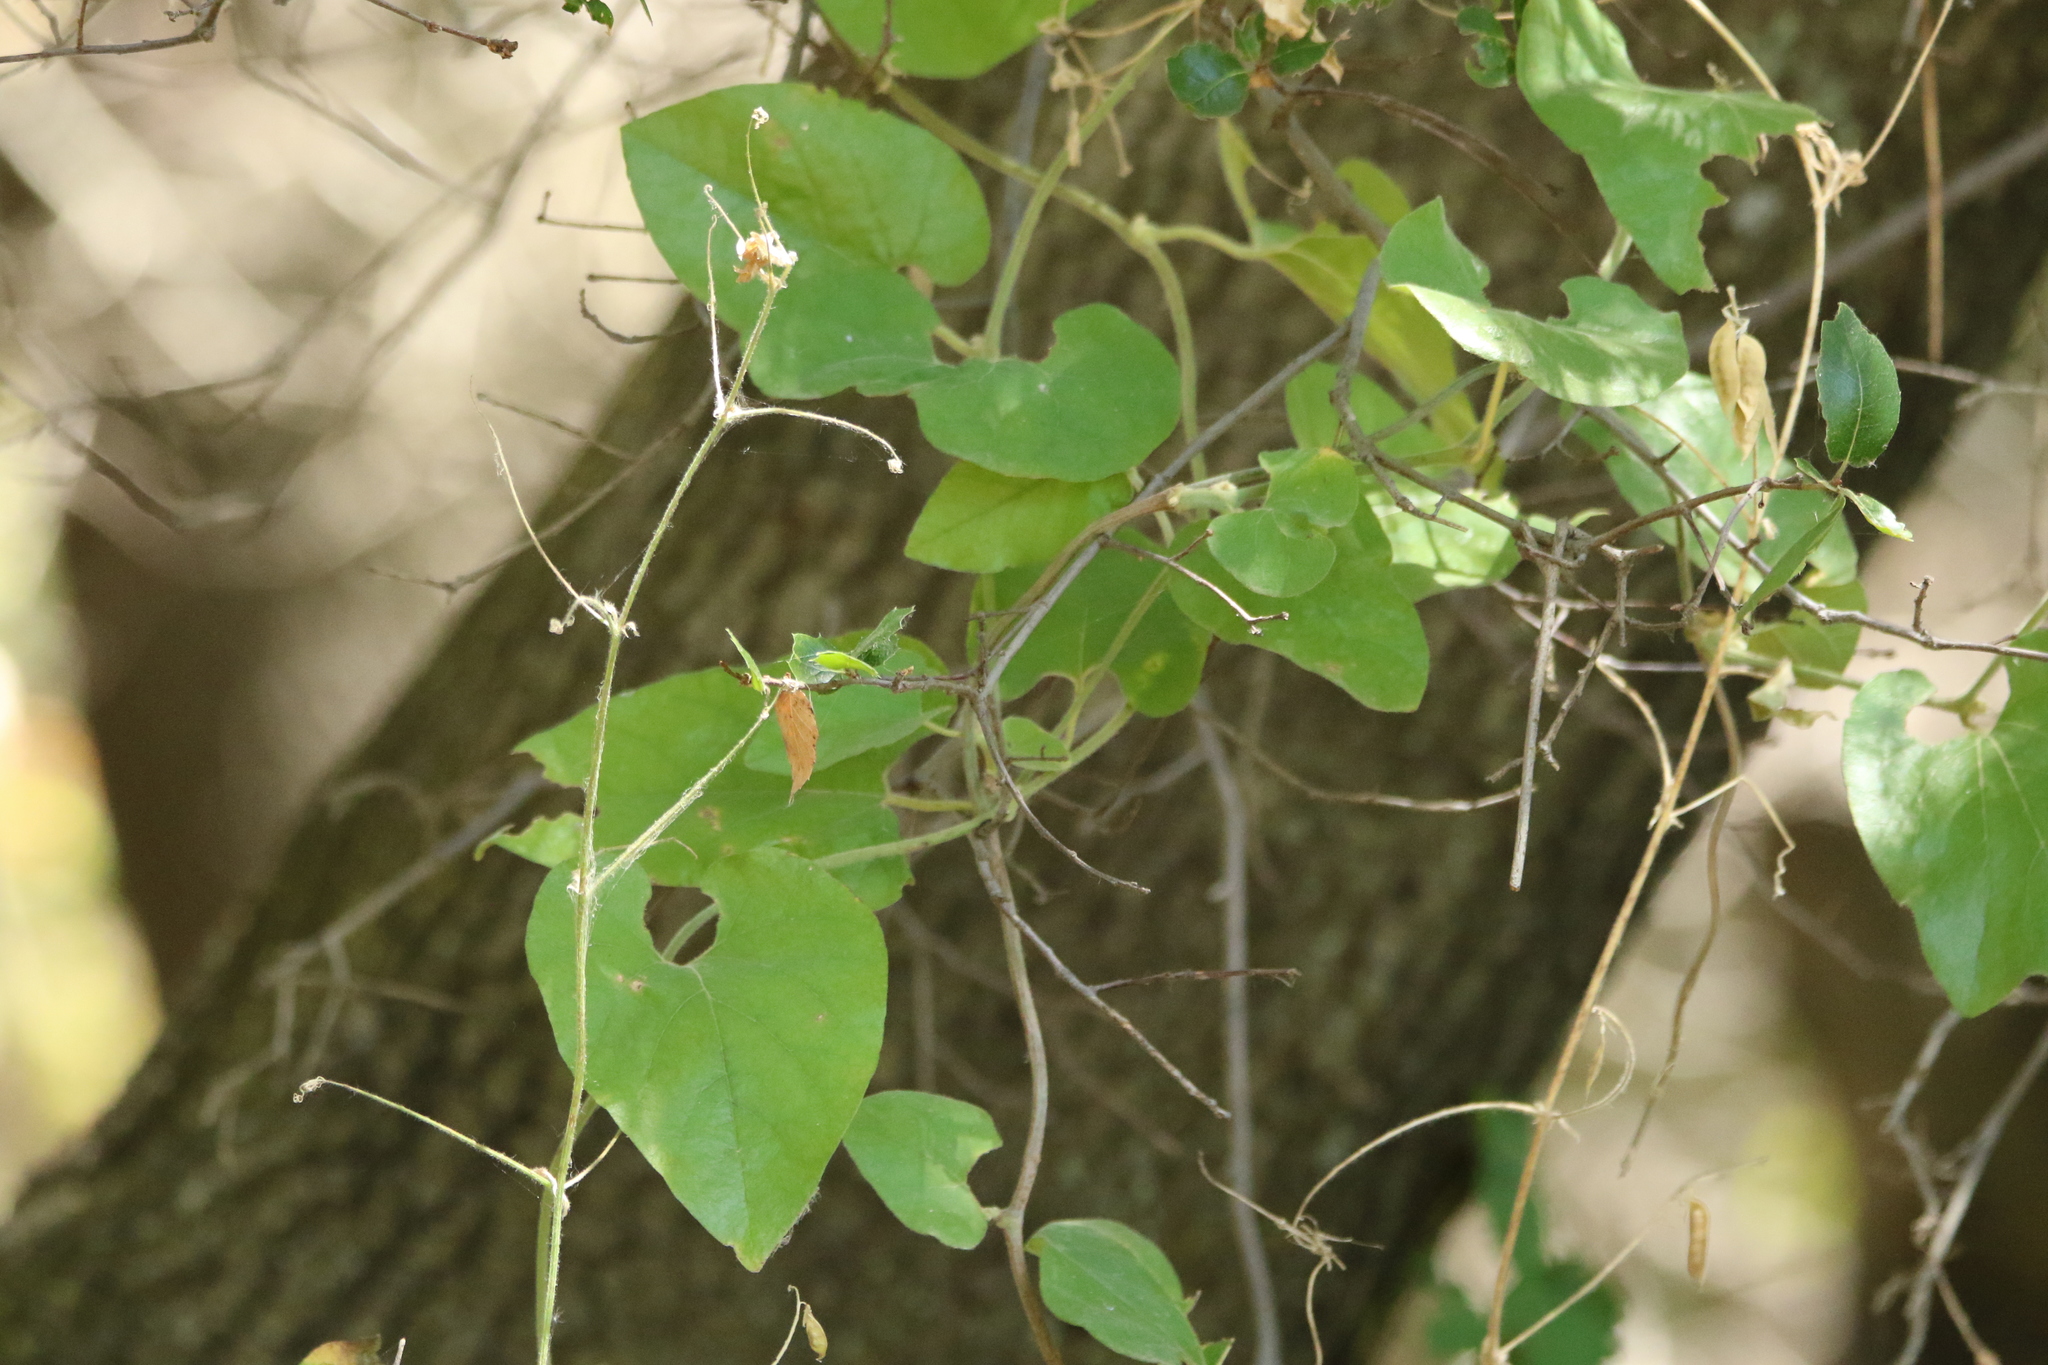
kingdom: Plantae
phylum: Tracheophyta
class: Magnoliopsida
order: Piperales
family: Aristolochiaceae
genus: Isotrema
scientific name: Isotrema californicum
